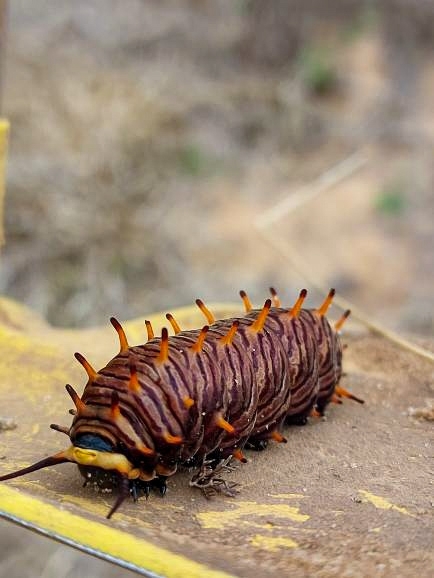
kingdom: Animalia
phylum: Arthropoda
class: Insecta
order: Lepidoptera
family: Papilionidae
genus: Battus
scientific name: Battus polydamas
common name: Polydamas swallowtail
